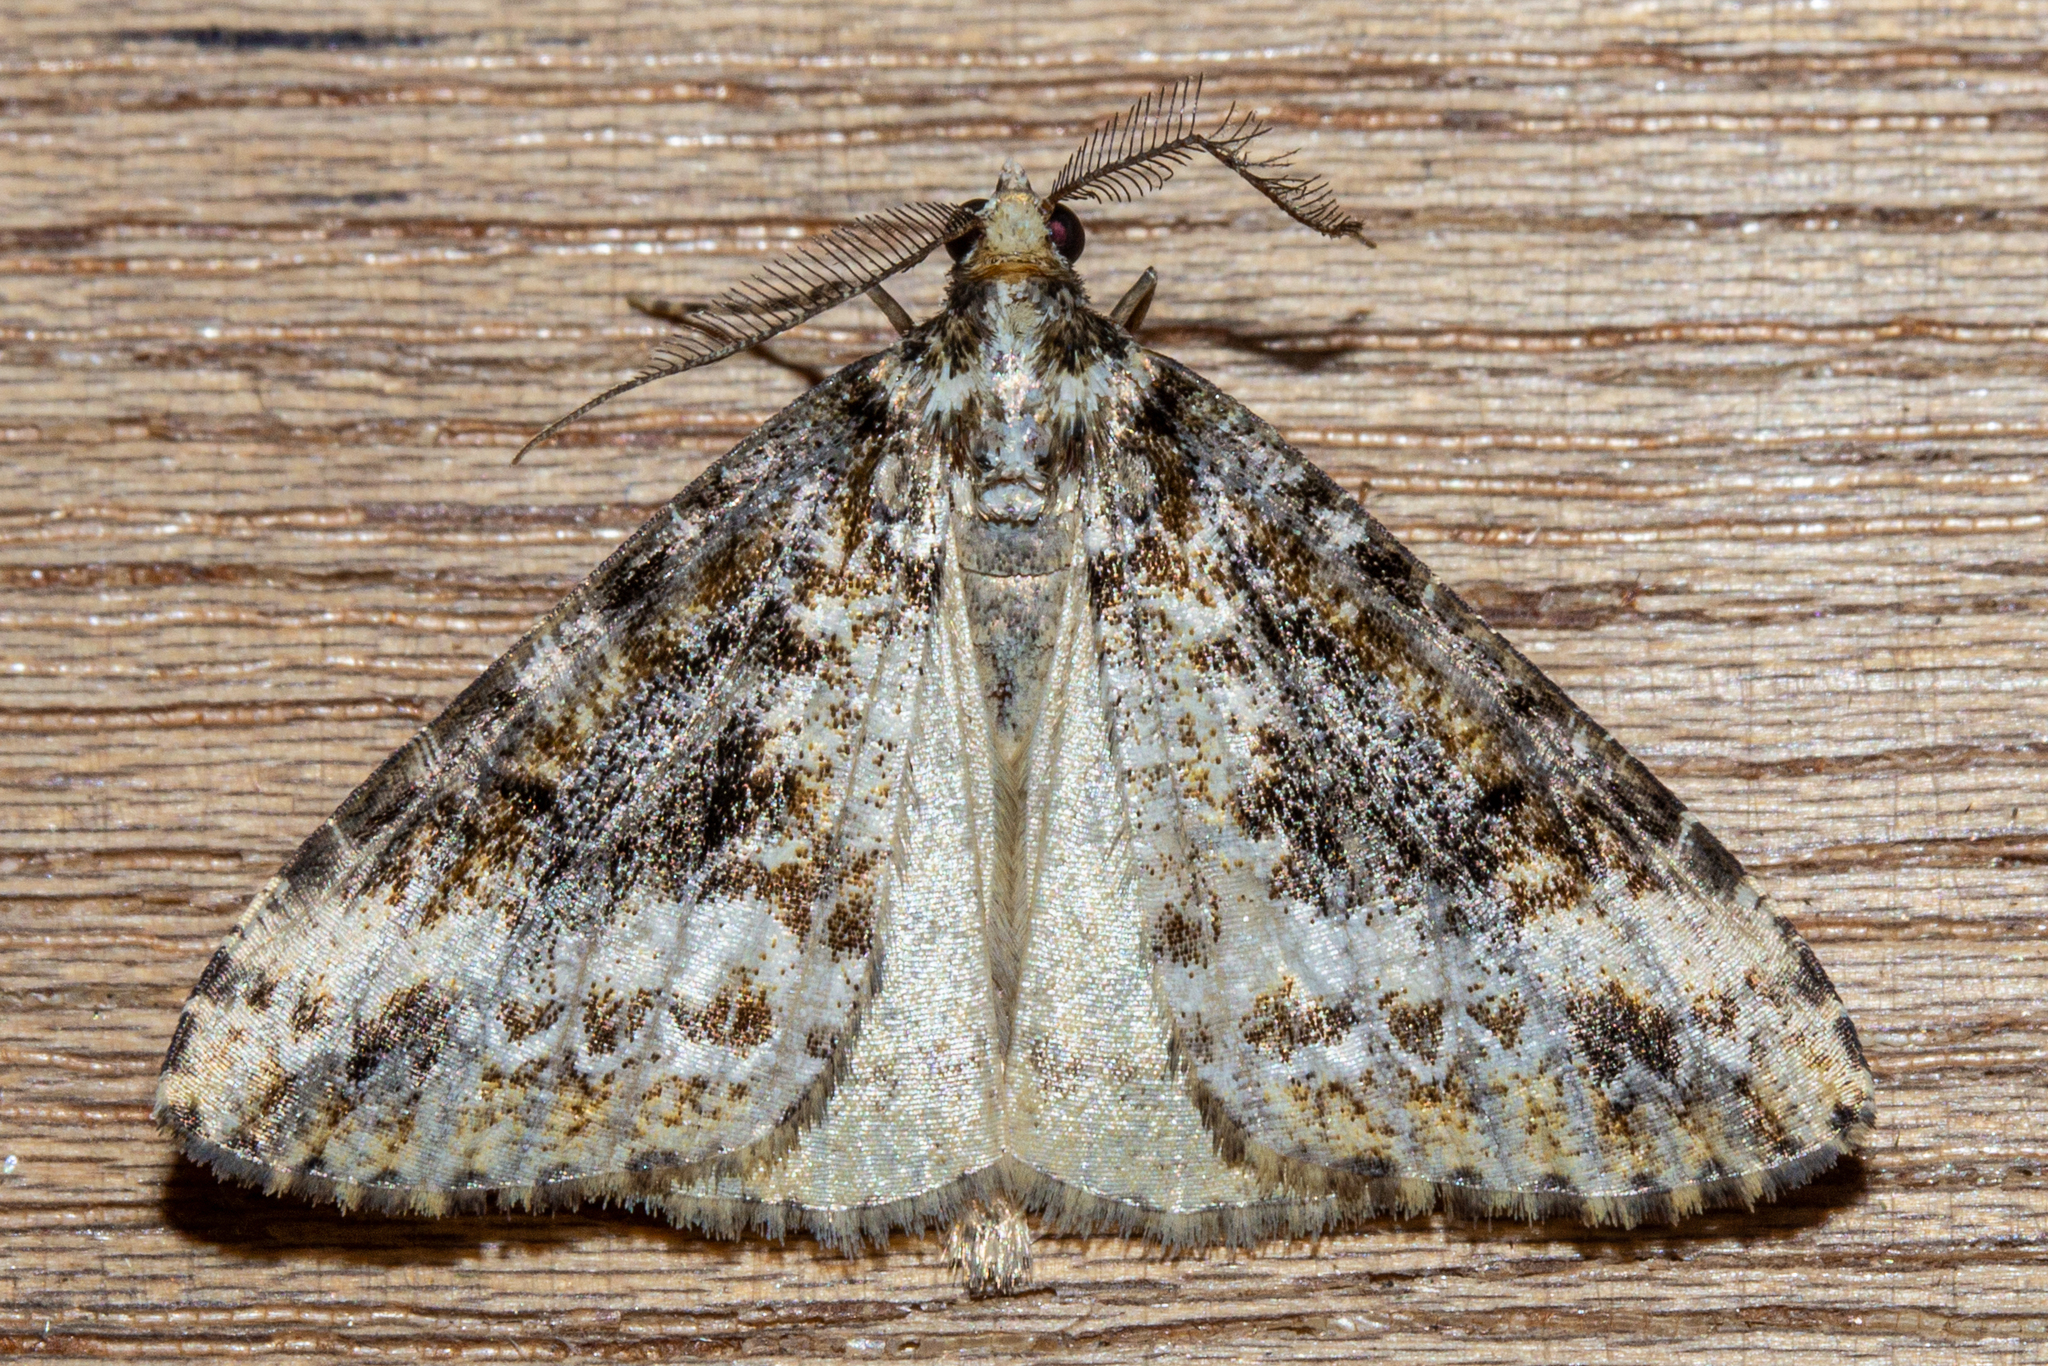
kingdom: Animalia
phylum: Arthropoda
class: Insecta
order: Lepidoptera
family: Geometridae
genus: Pseudocoremia
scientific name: Pseudocoremia leucelaea
